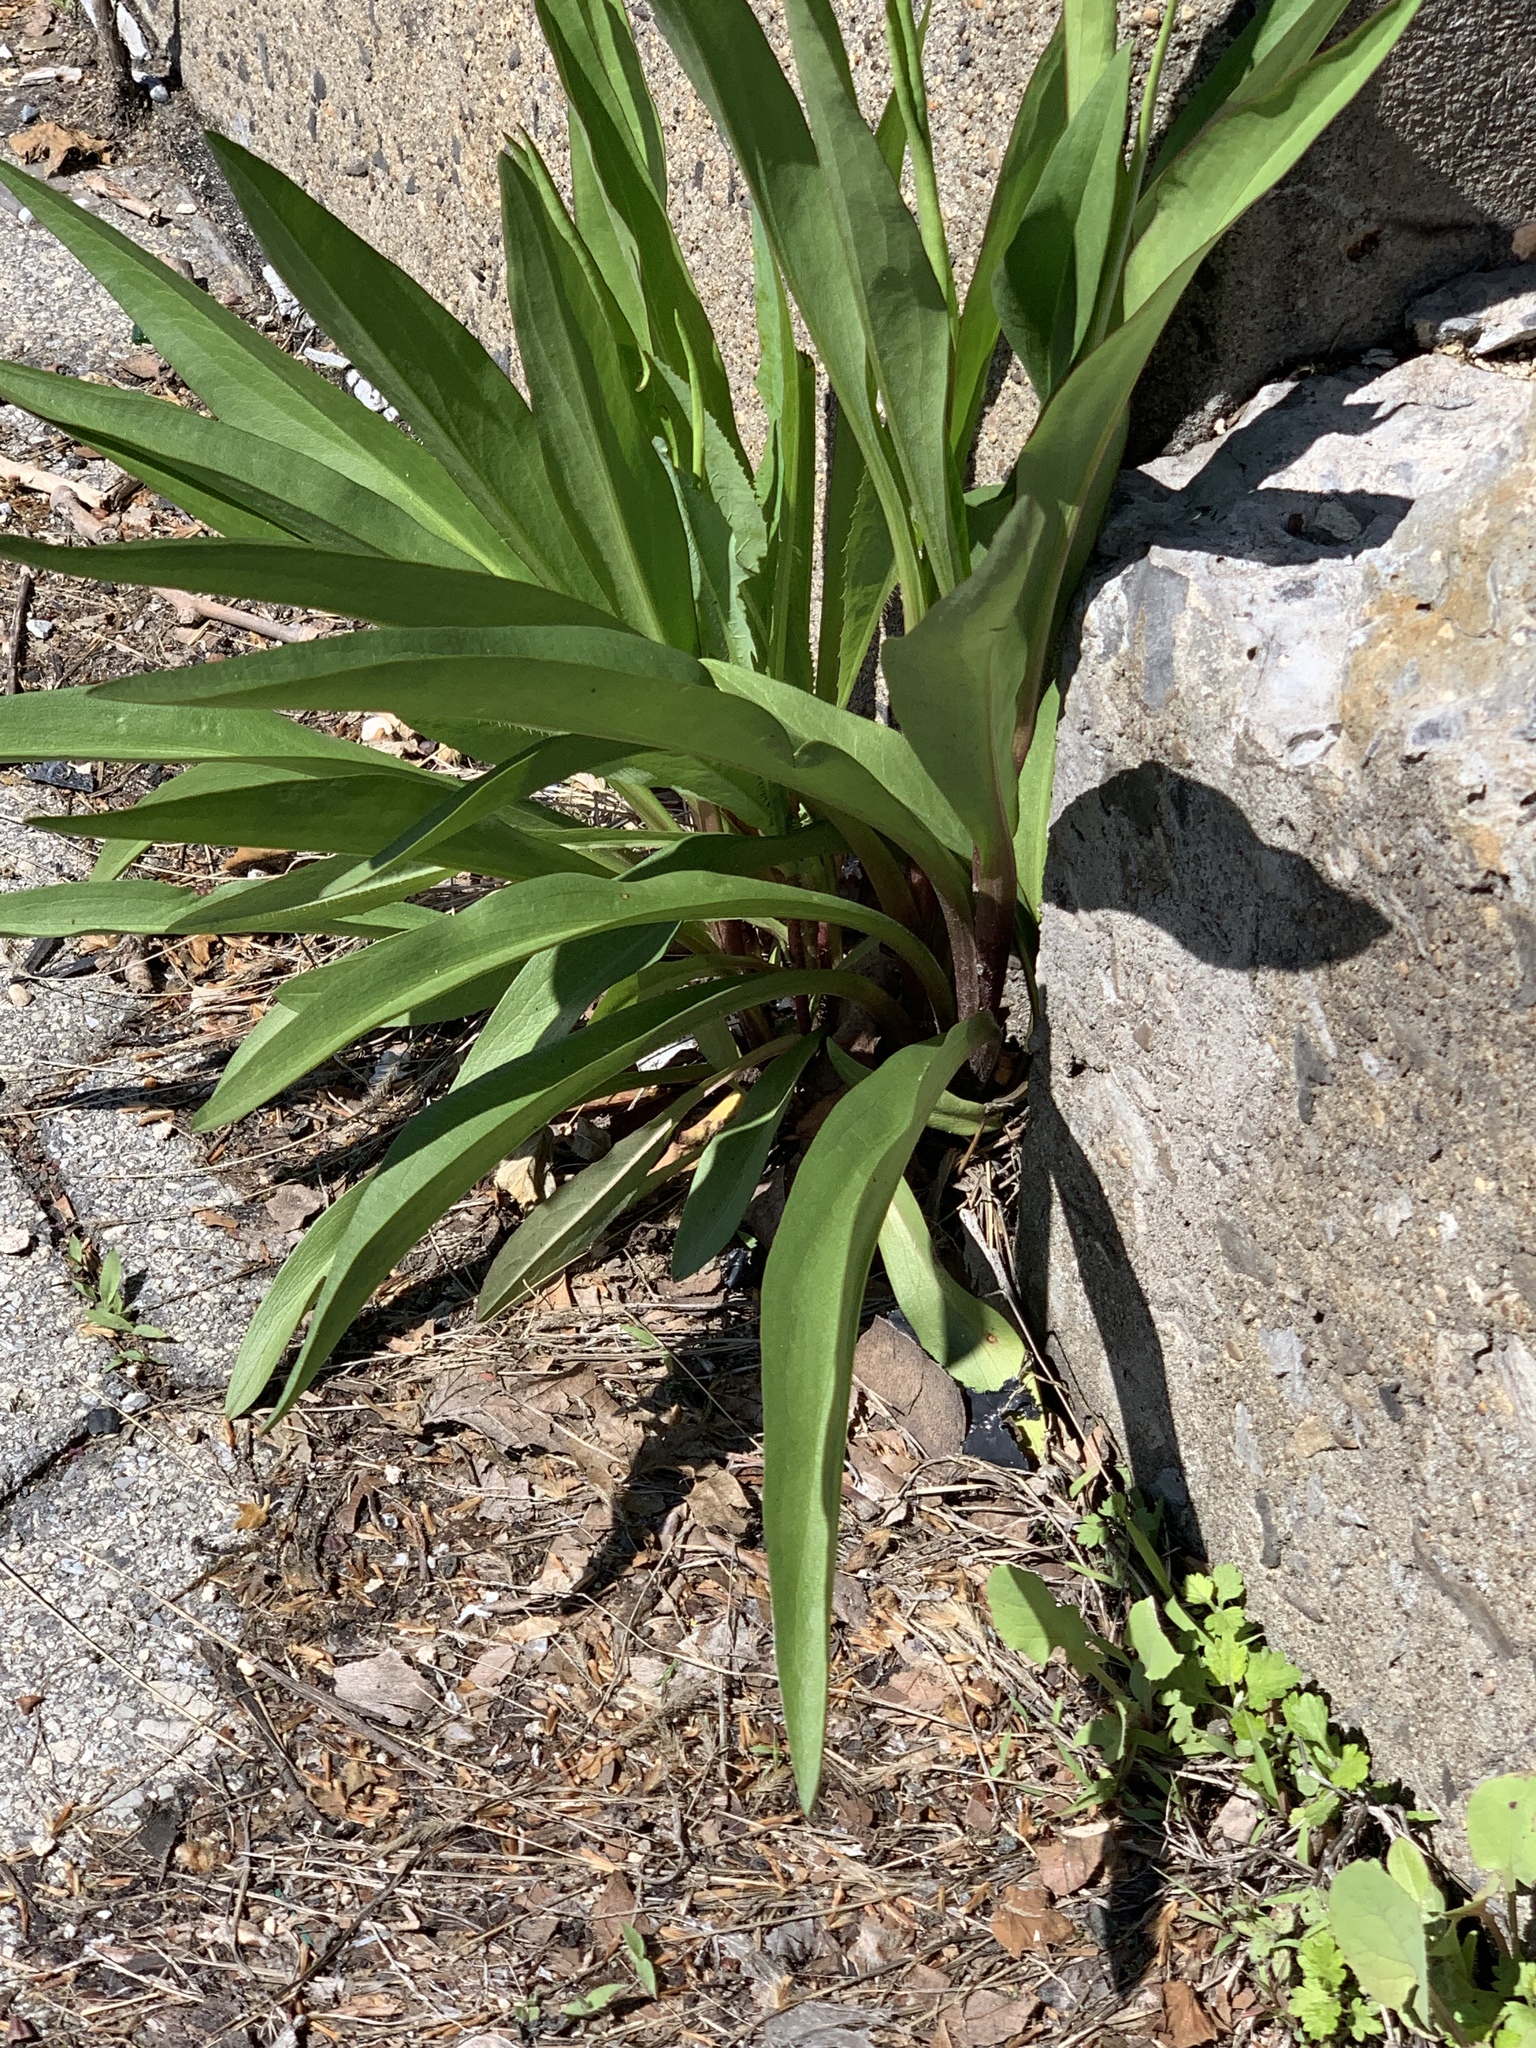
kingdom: Plantae
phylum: Tracheophyta
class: Magnoliopsida
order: Asterales
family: Asteraceae
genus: Solidago
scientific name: Solidago sempervirens
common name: Salt-marsh goldenrod
